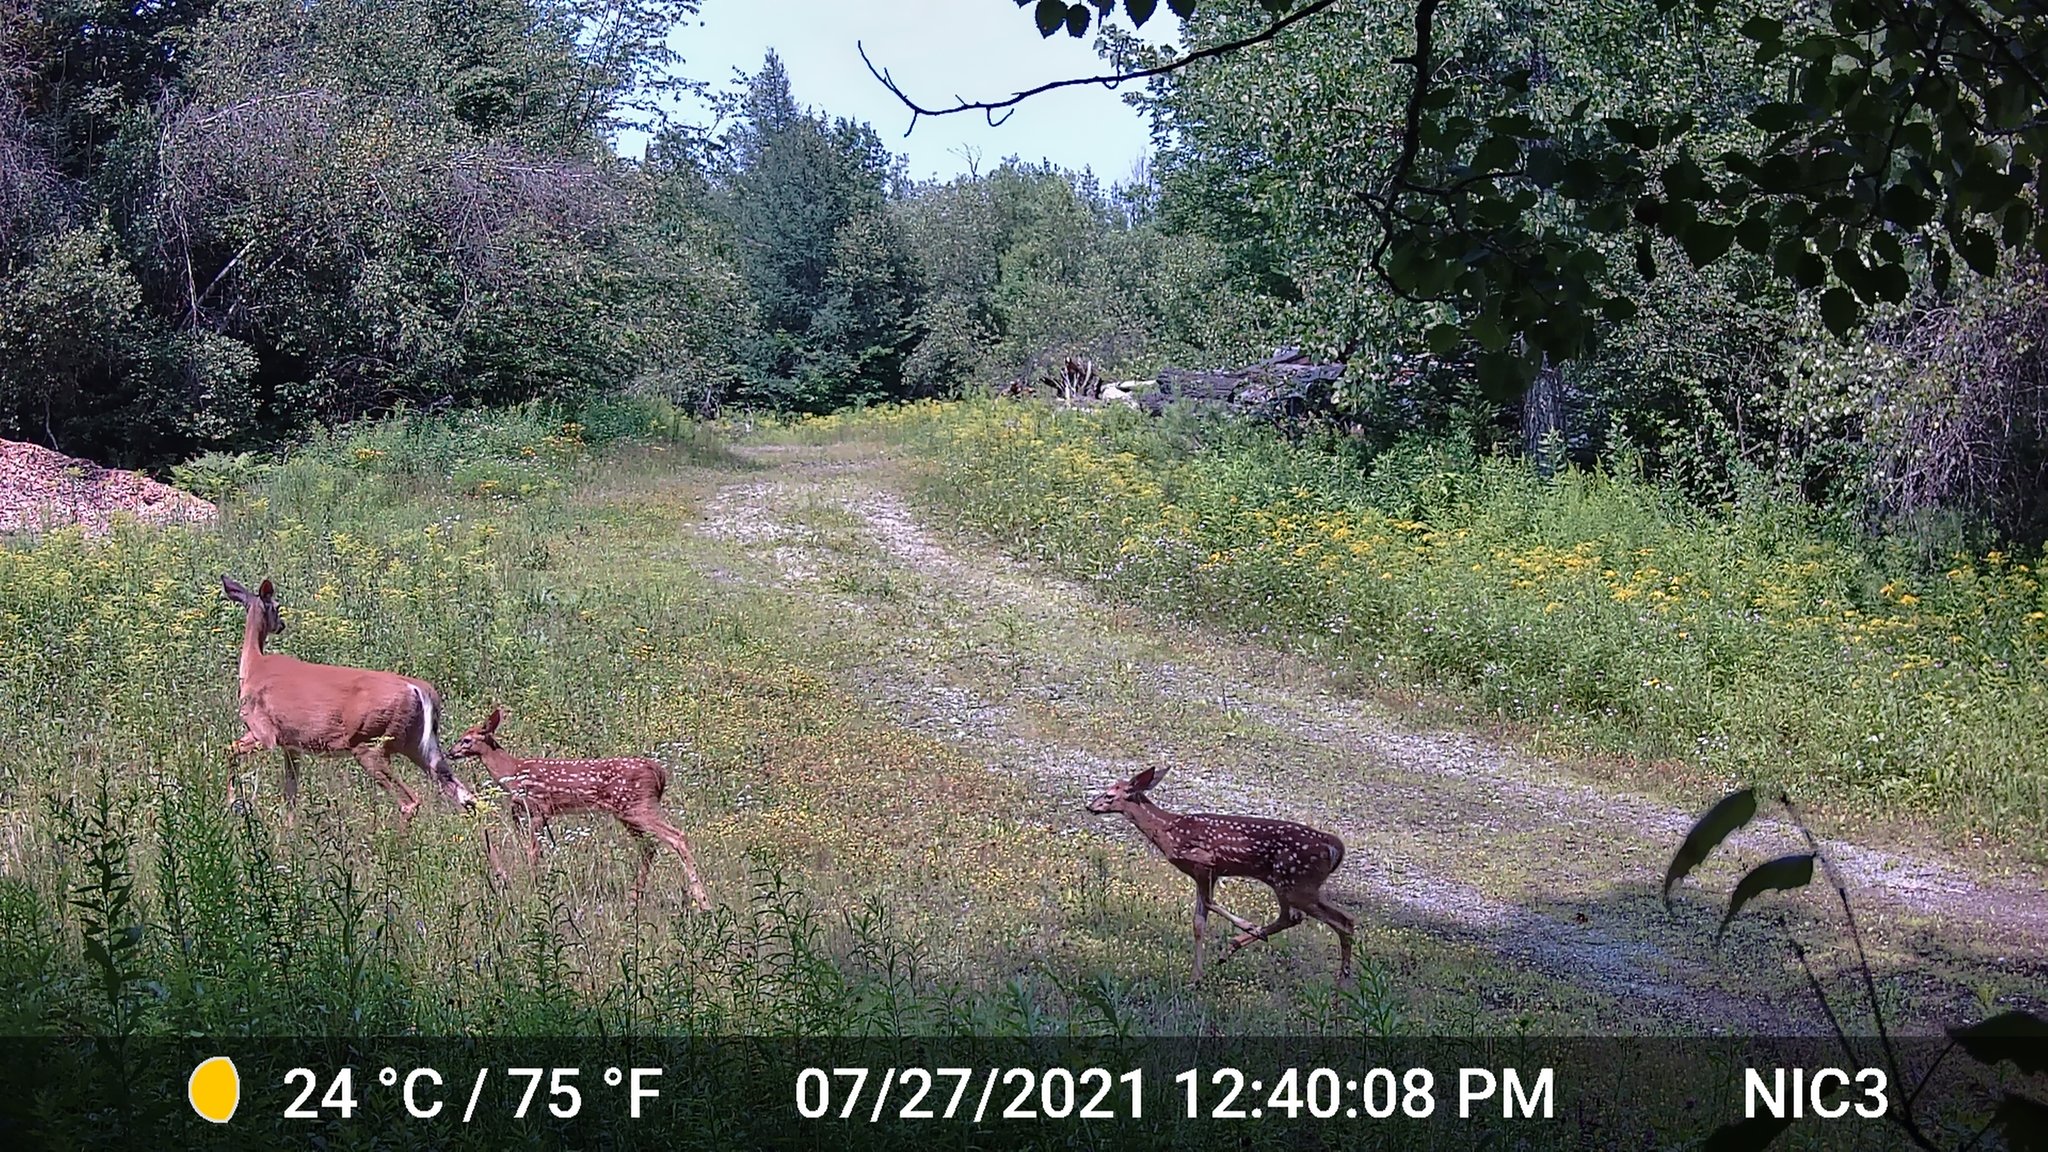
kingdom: Animalia
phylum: Chordata
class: Mammalia
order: Artiodactyla
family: Cervidae
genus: Odocoileus
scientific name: Odocoileus virginianus
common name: White-tailed deer
